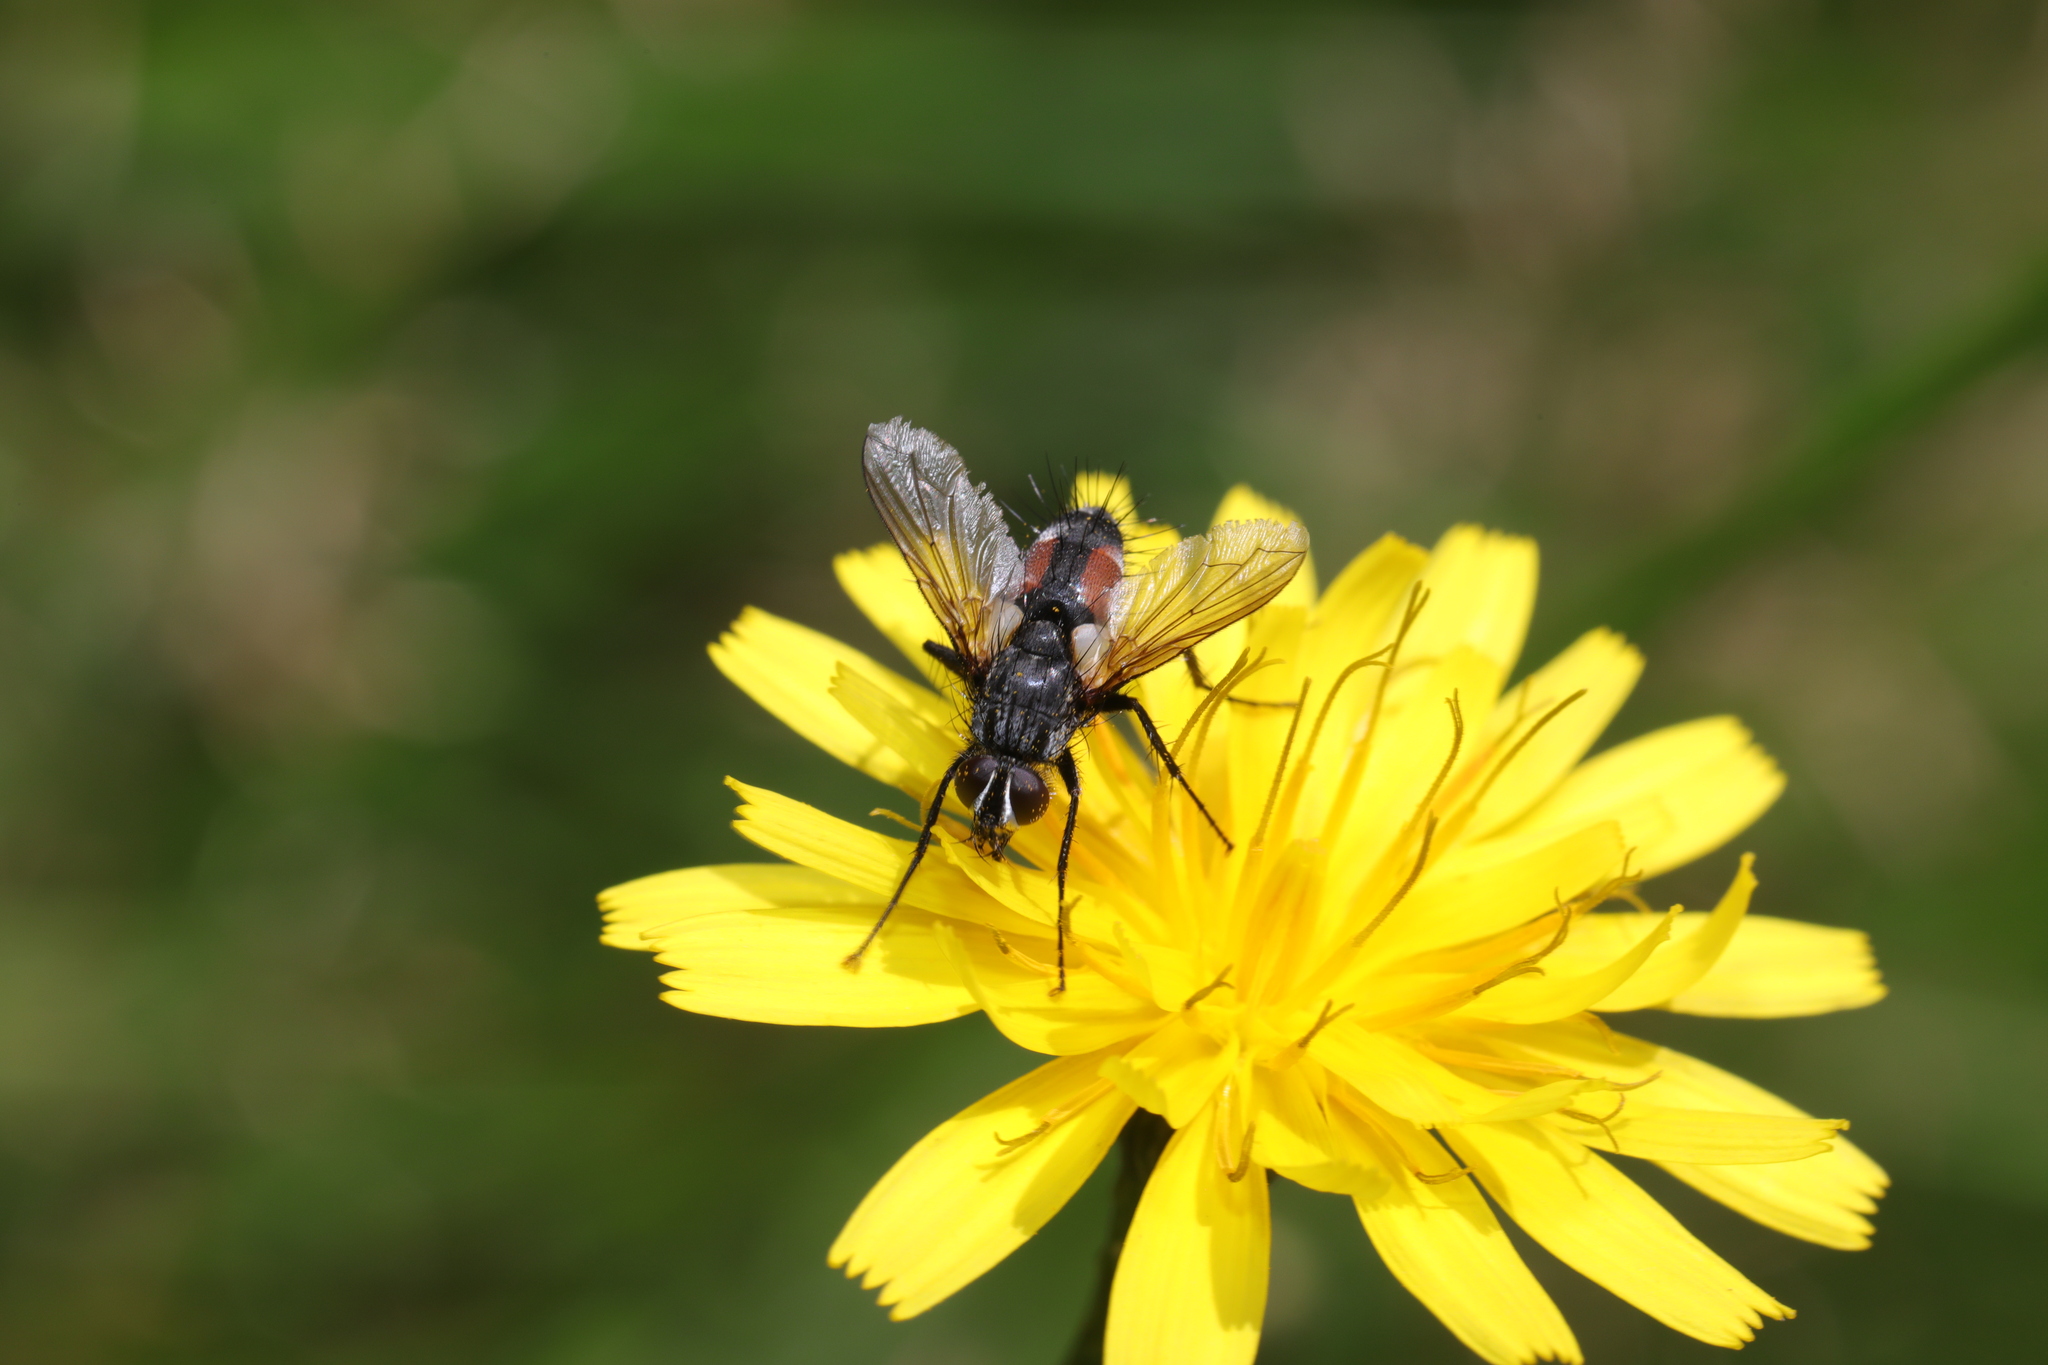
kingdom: Animalia
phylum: Arthropoda
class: Insecta
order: Diptera
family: Tachinidae
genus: Eriothrix
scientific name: Eriothrix rufomaculatus
